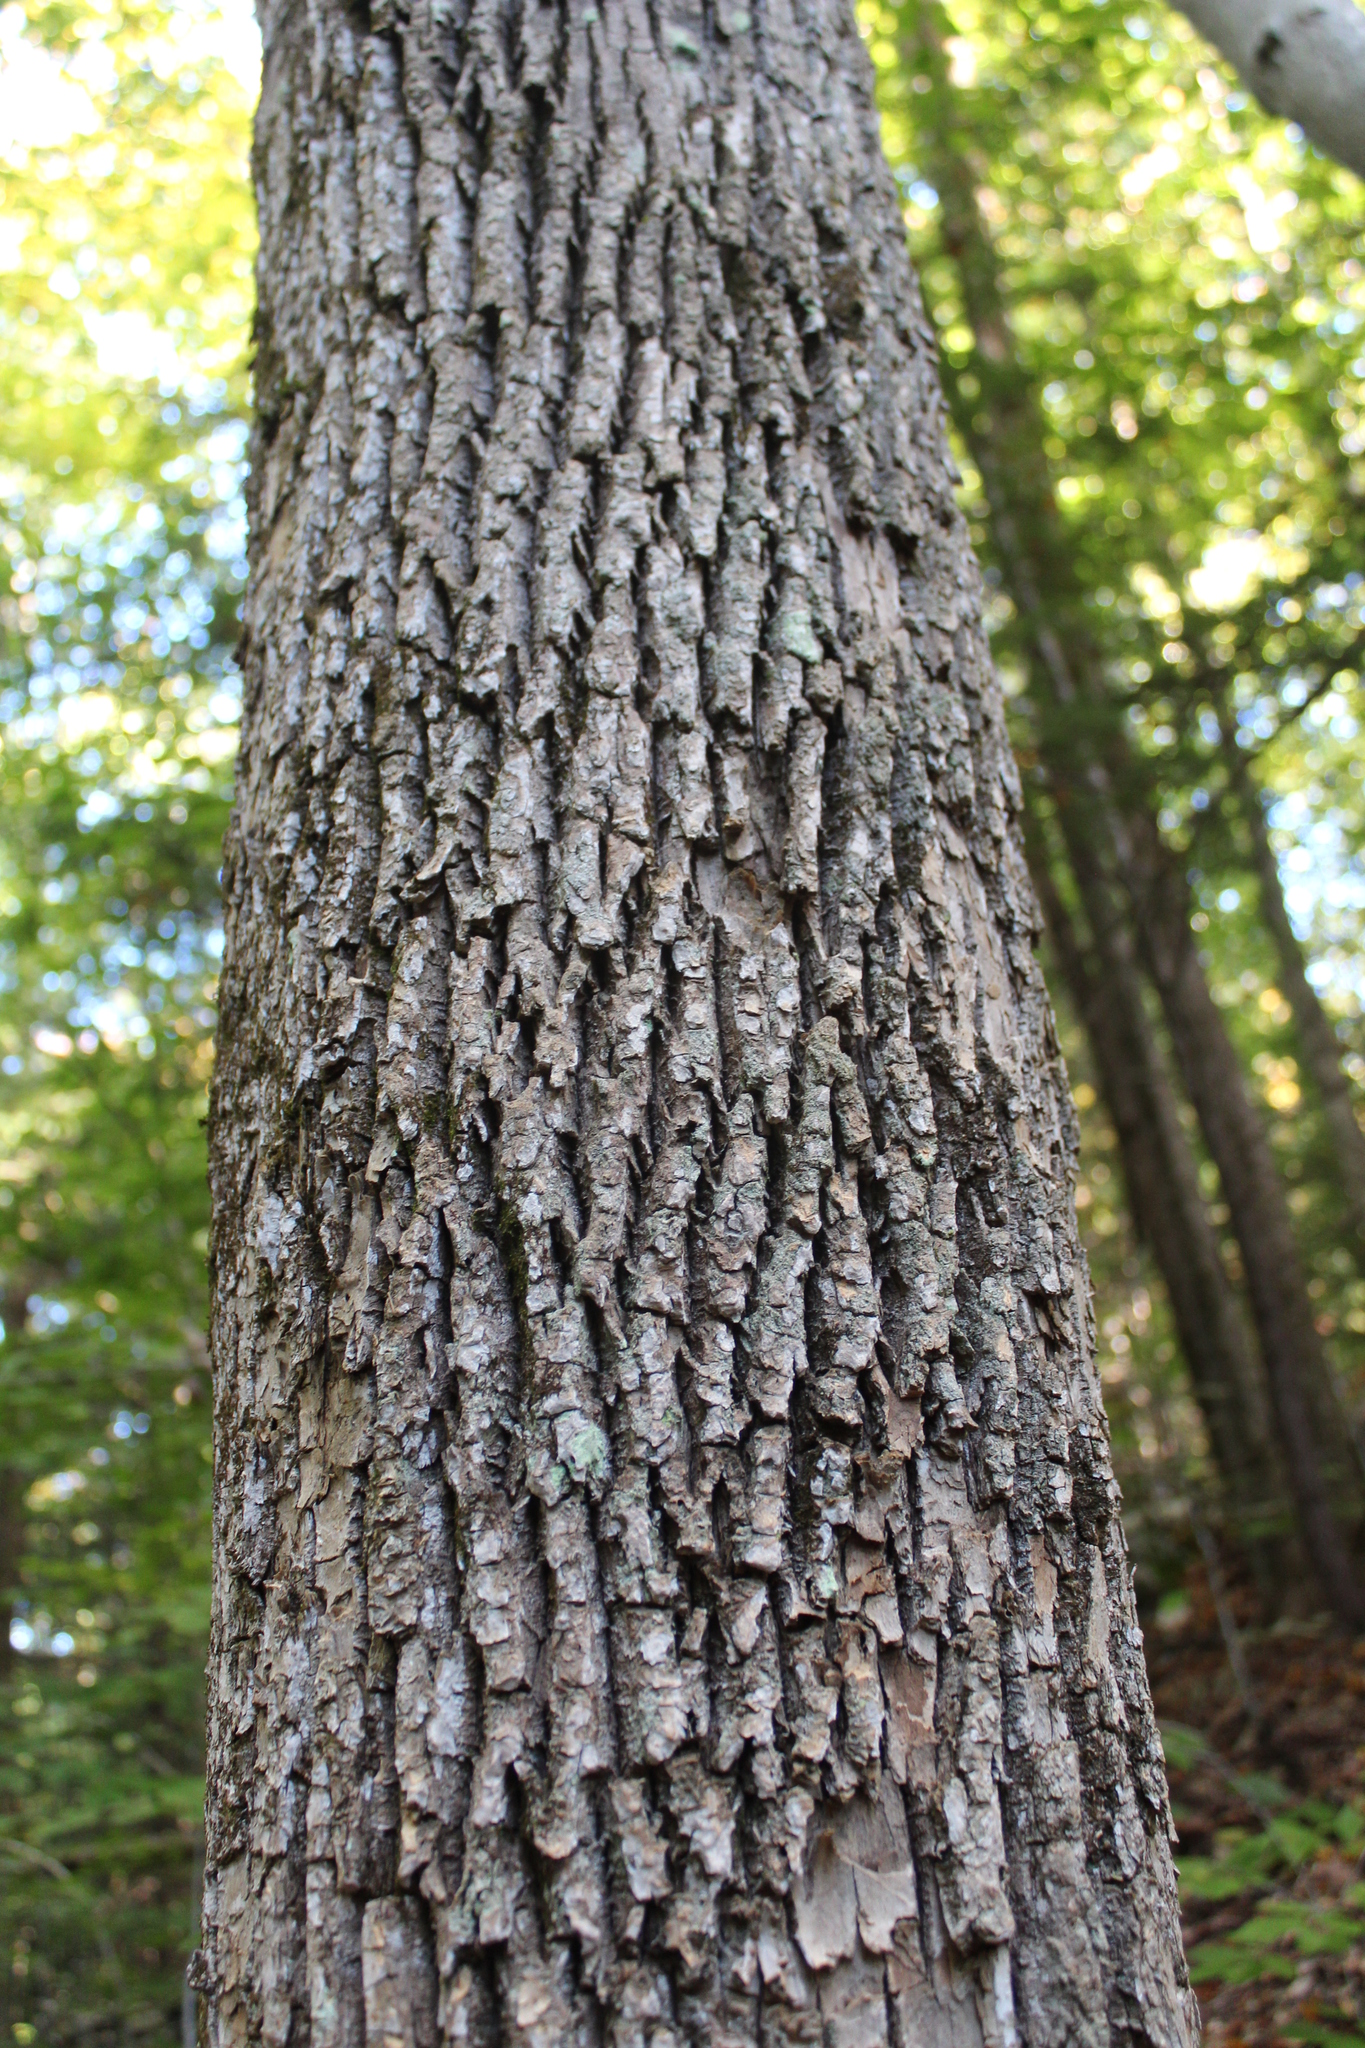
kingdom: Plantae
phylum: Tracheophyta
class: Magnoliopsida
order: Lamiales
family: Oleaceae
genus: Fraxinus
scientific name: Fraxinus americana
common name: White ash
